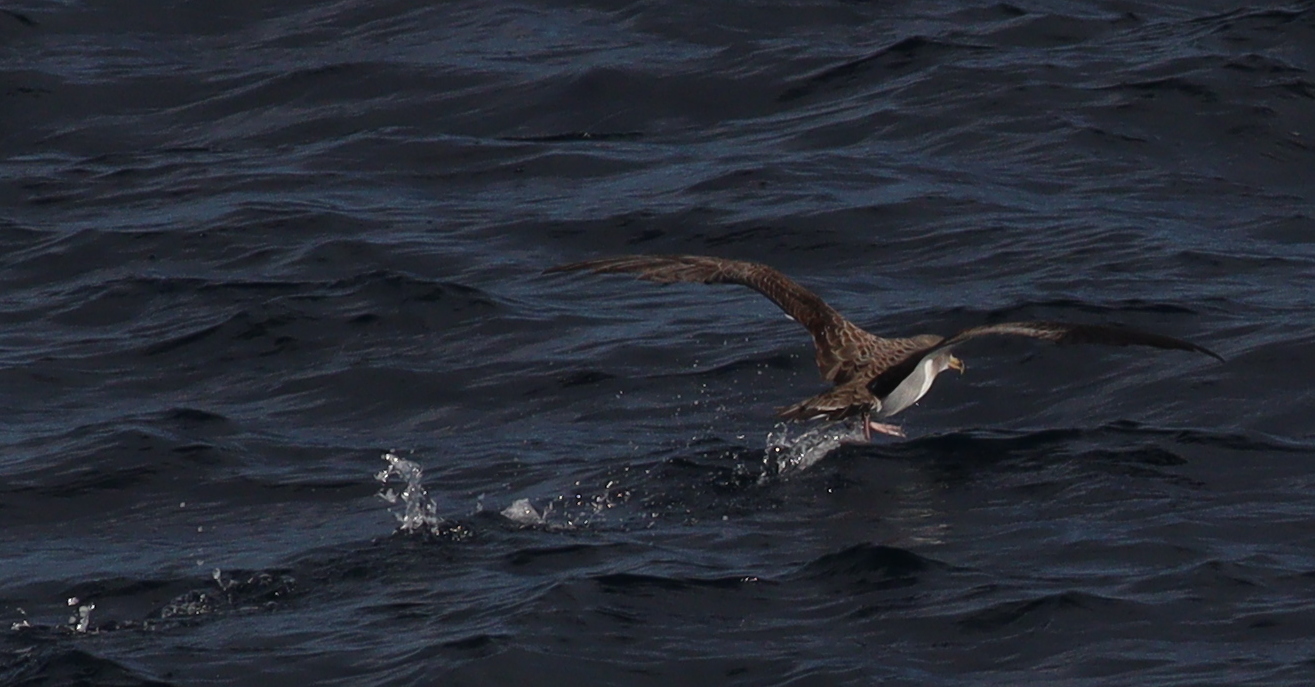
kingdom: Animalia
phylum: Chordata
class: Aves
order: Procellariiformes
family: Procellariidae
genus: Calonectris
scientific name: Calonectris diomedea
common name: Cory's shearwater
